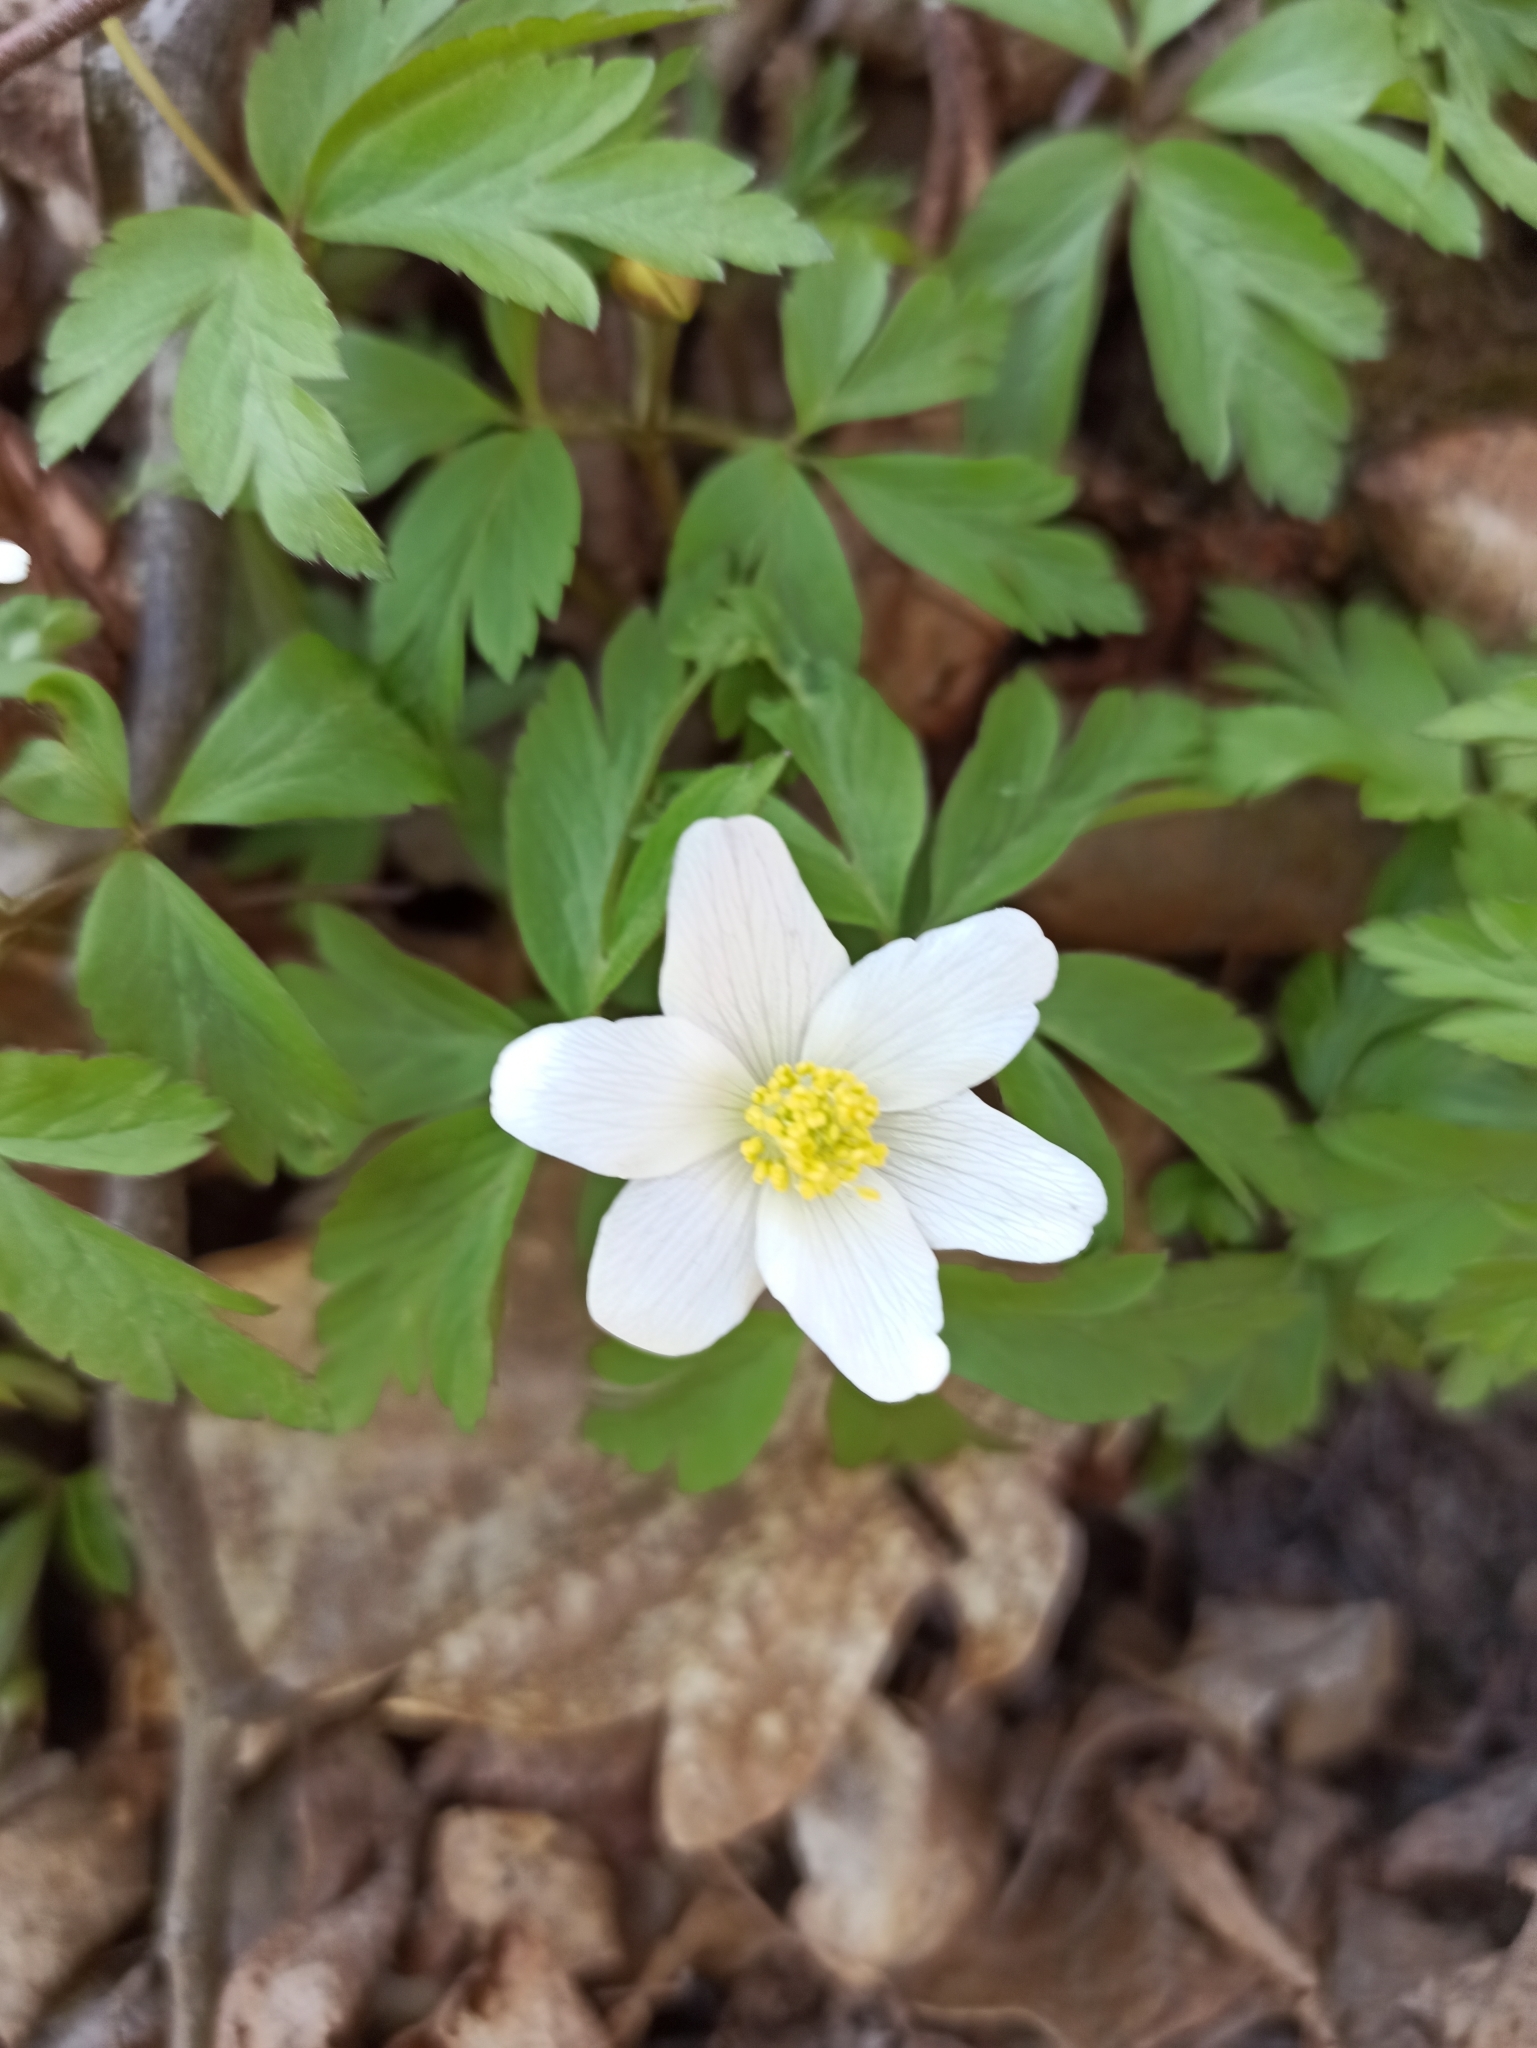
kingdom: Plantae
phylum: Tracheophyta
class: Magnoliopsida
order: Ranunculales
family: Ranunculaceae
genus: Anemone
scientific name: Anemone nemorosa
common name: Wood anemone
